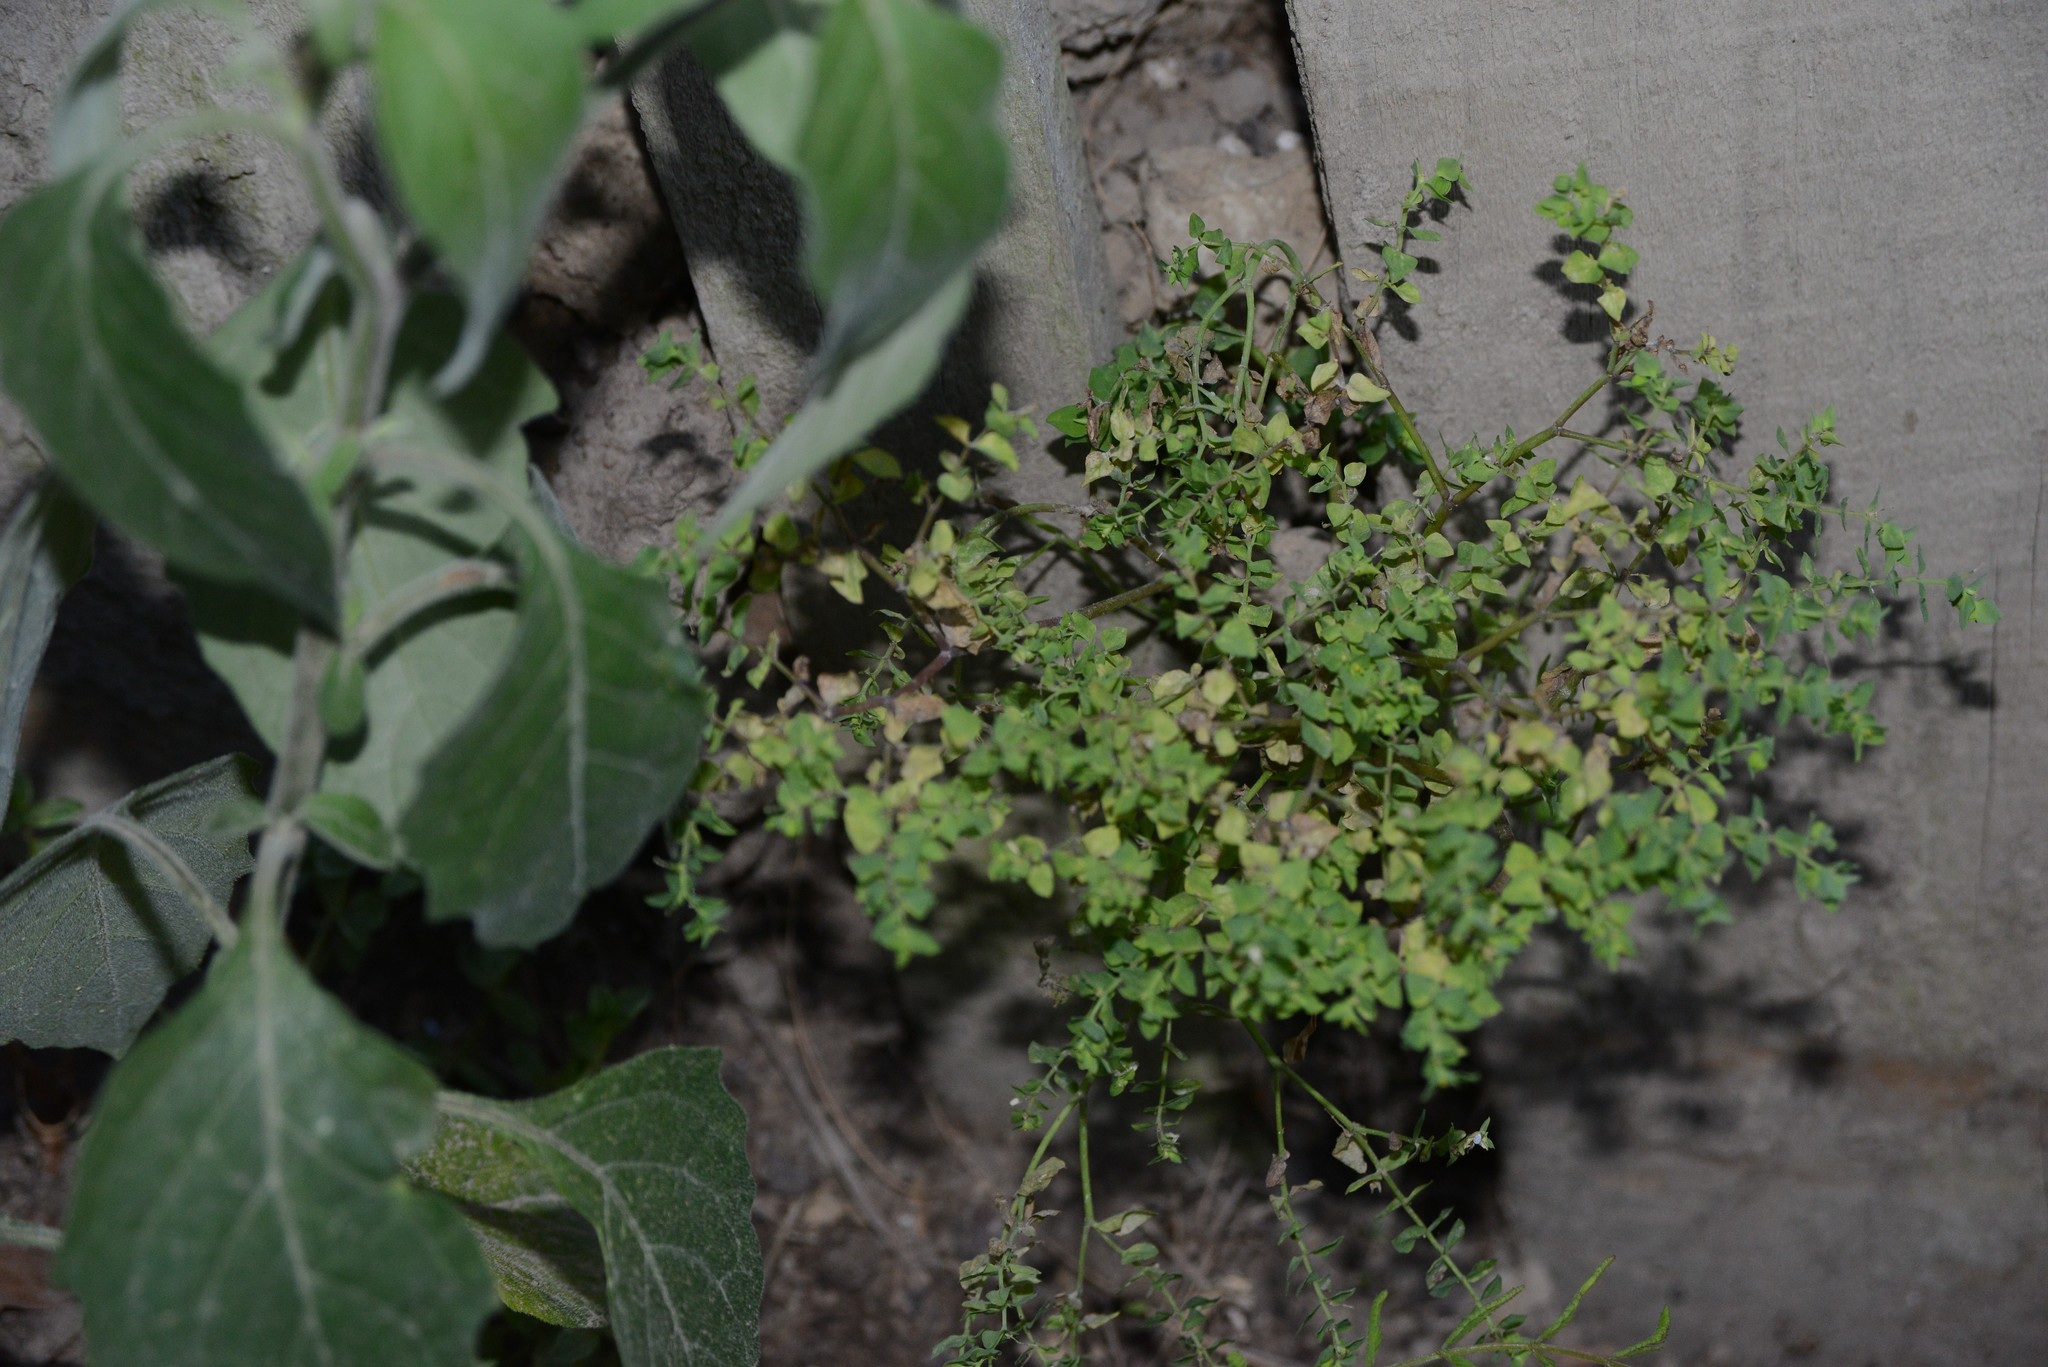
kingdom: Plantae
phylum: Tracheophyta
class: Magnoliopsida
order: Malpighiales
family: Euphorbiaceae
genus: Euphorbia
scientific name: Euphorbia peplus
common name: Petty spurge
